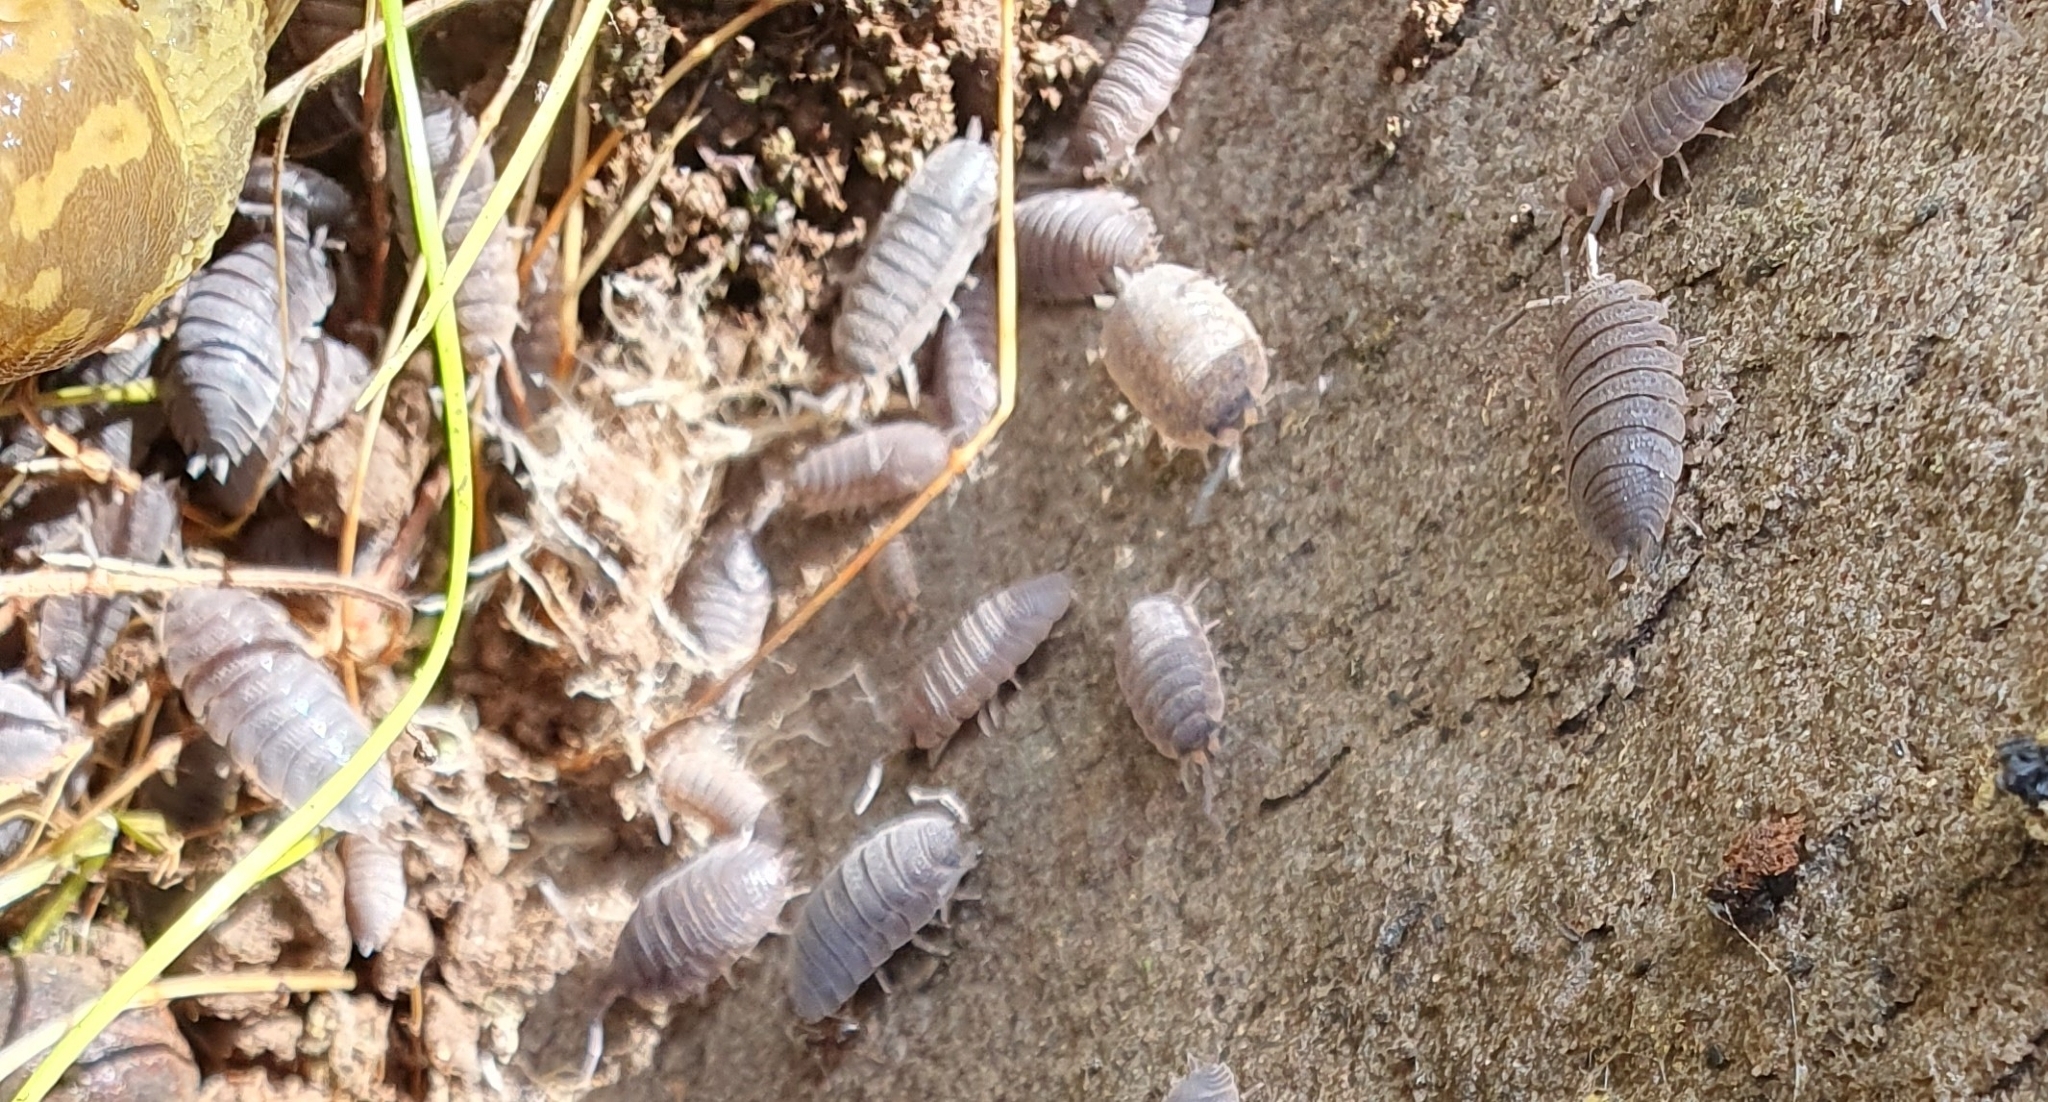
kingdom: Animalia
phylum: Arthropoda
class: Malacostraca
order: Isopoda
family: Porcellionidae
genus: Porcellio
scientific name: Porcellio scaber
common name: Common rough woodlouse
